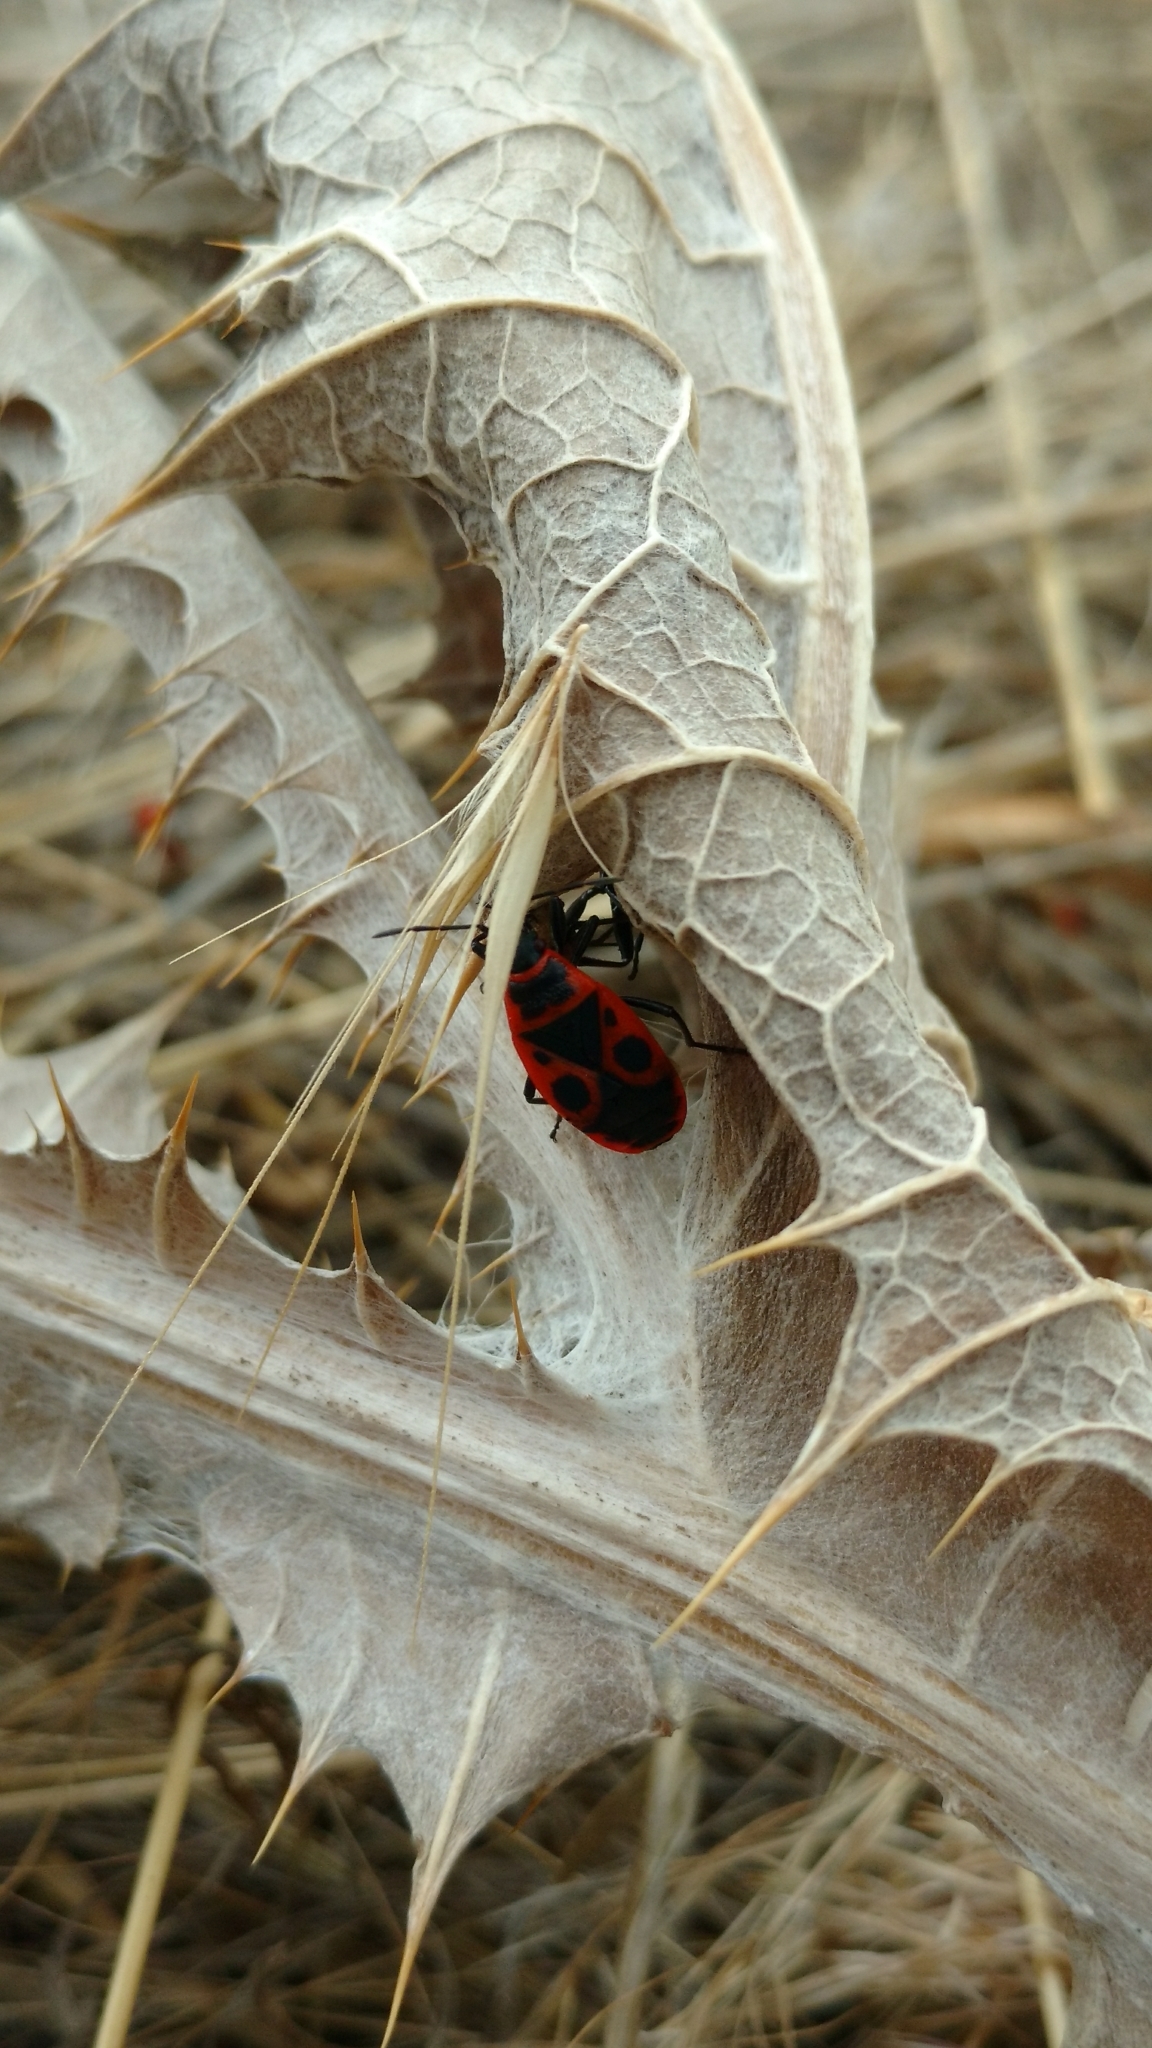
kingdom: Animalia
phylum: Arthropoda
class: Insecta
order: Hemiptera
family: Pyrrhocoridae
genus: Pyrrhocoris
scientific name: Pyrrhocoris apterus
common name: Firebug
